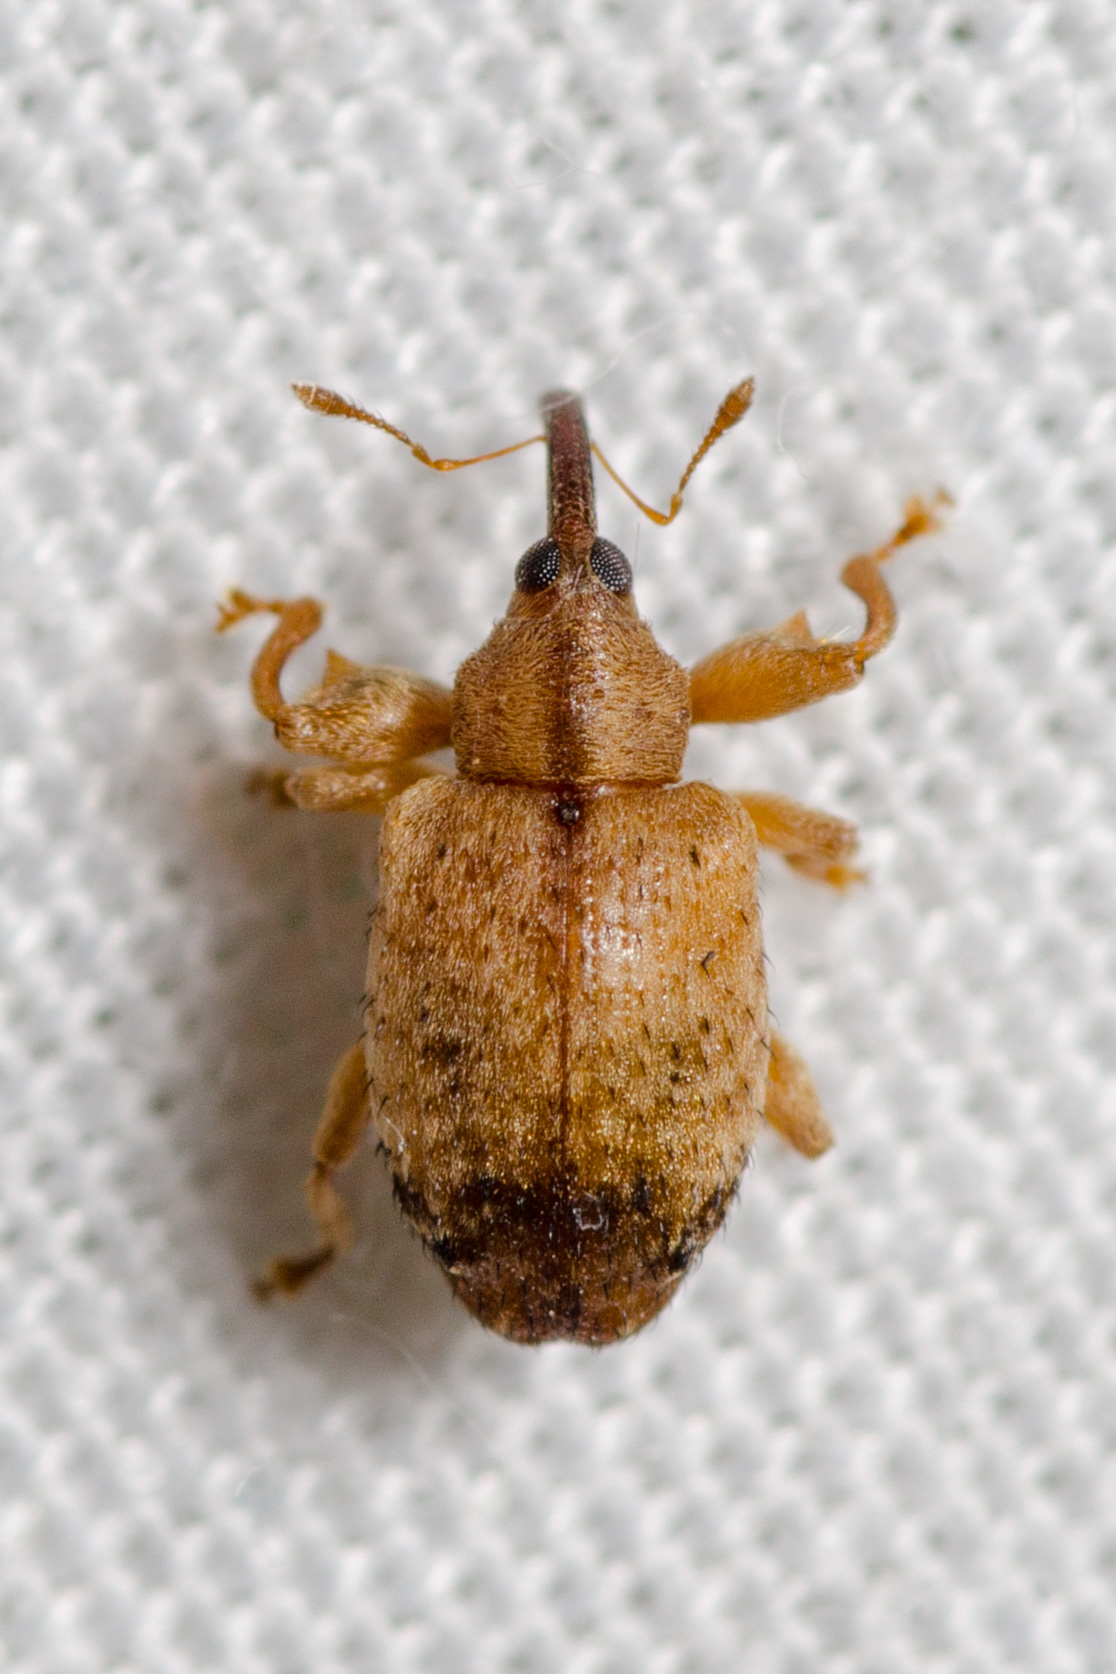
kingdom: Animalia
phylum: Arthropoda
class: Insecta
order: Coleoptera
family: Curculionidae
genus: Ochyromera
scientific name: Ochyromera ligustri
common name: Weevil
